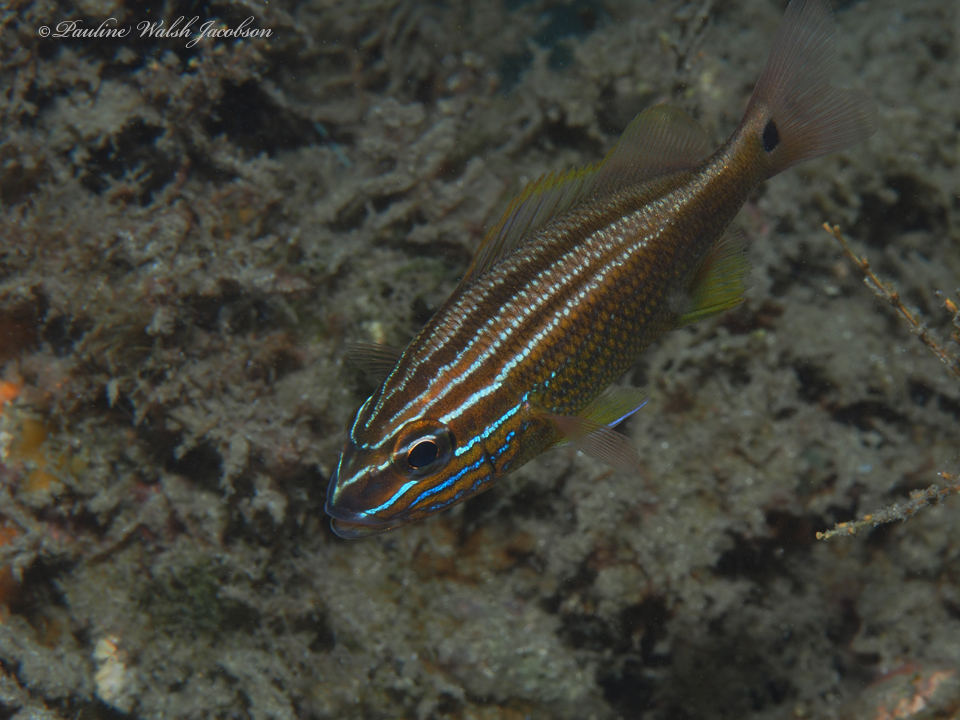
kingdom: Animalia
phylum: Chordata
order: Perciformes
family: Haemulidae
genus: Haemulon
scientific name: Haemulon plumierii
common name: White grunt
